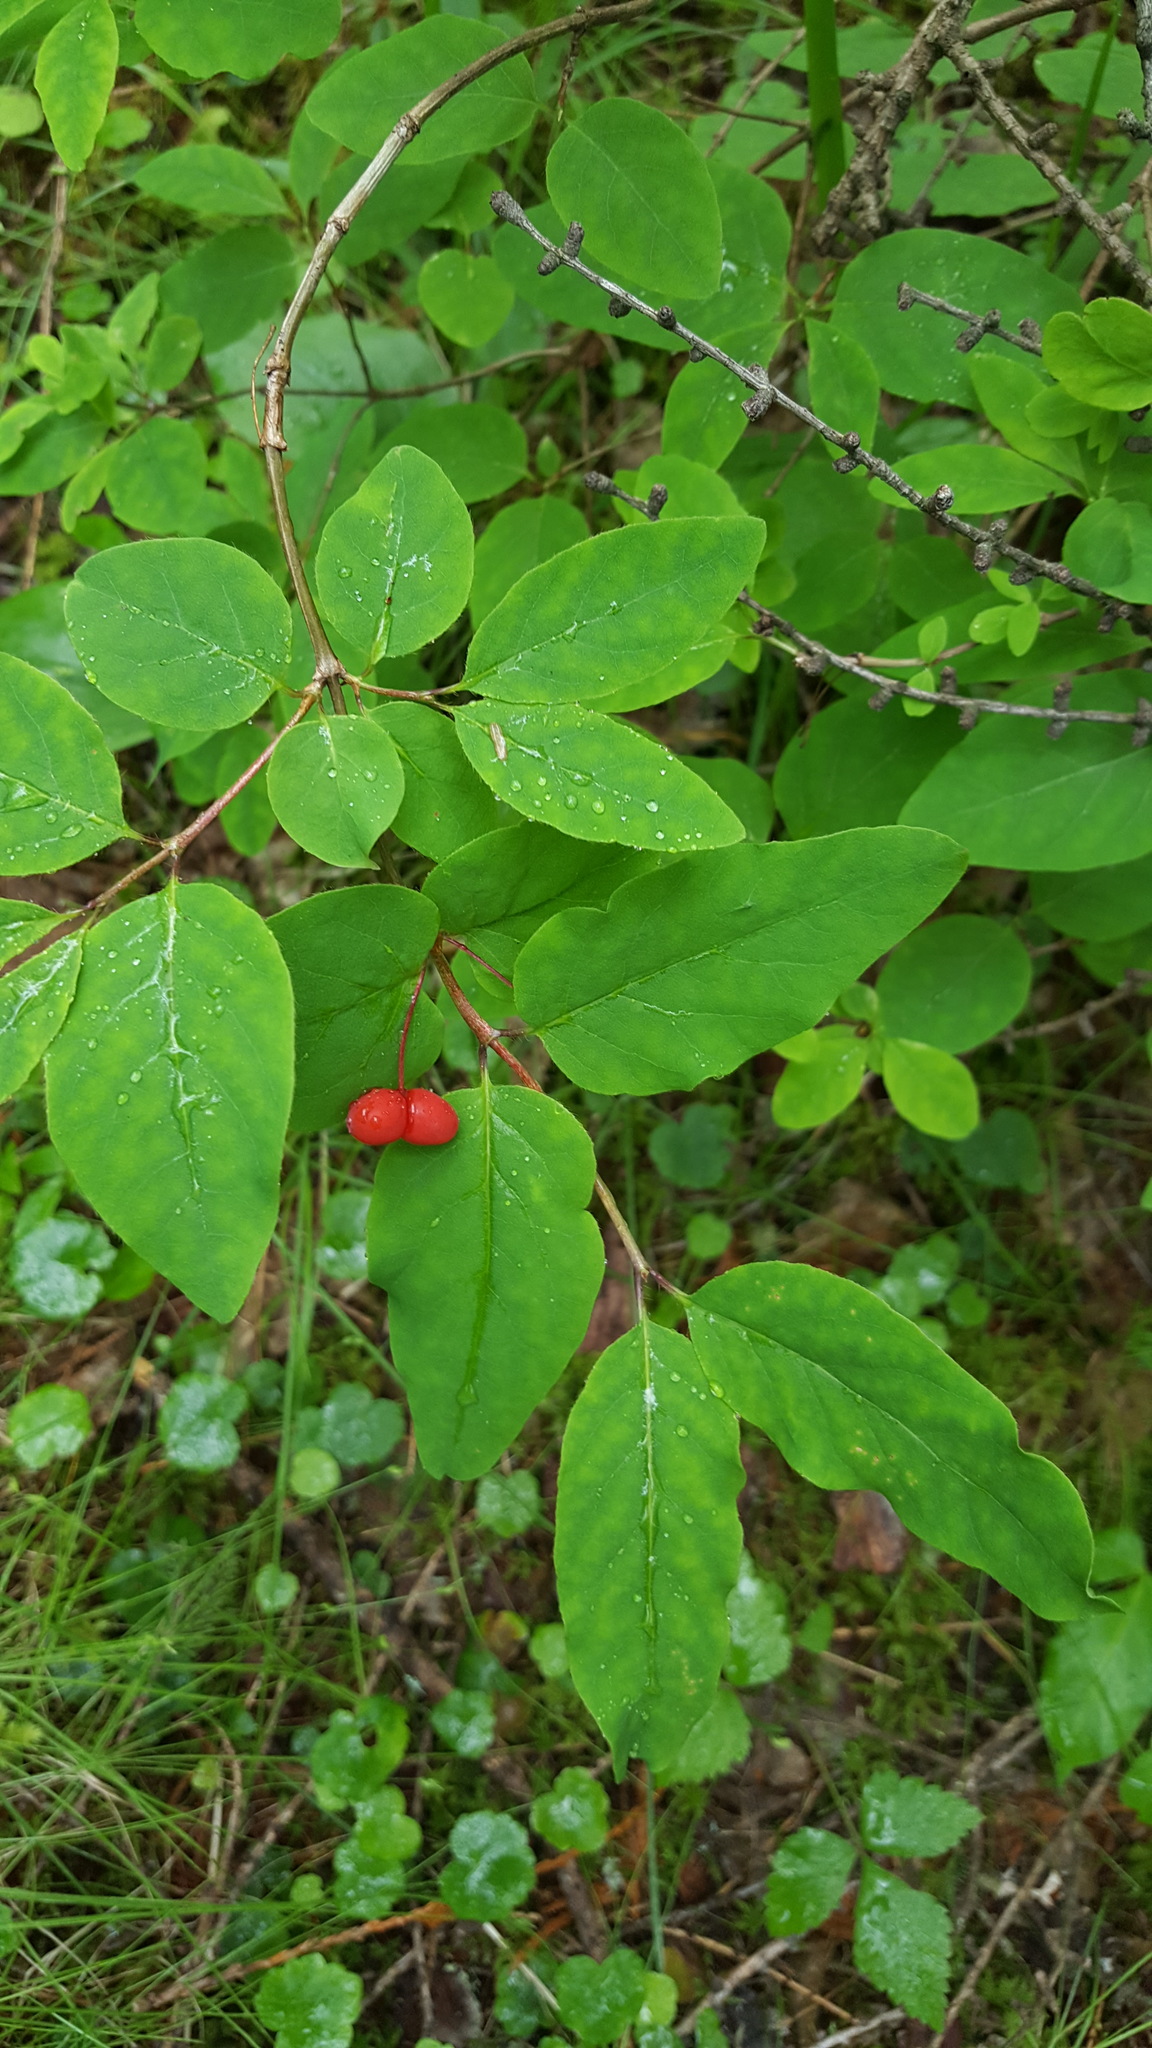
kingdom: Plantae
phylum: Tracheophyta
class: Magnoliopsida
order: Dipsacales
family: Caprifoliaceae
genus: Lonicera
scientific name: Lonicera canadensis
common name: American fly-honeysuckle
